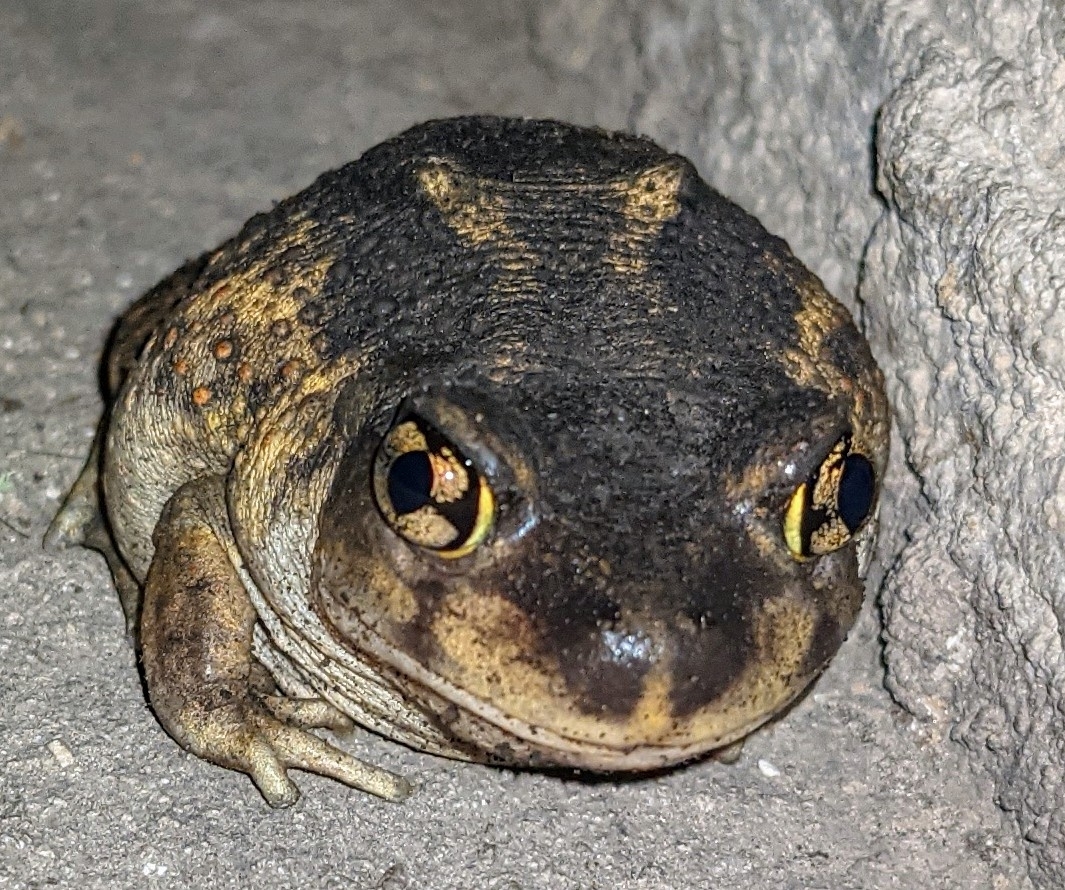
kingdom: Animalia
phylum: Chordata
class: Amphibia
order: Anura
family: Scaphiopodidae
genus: Scaphiopus
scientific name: Scaphiopus holbrookii
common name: Eastern spadefoot toad
